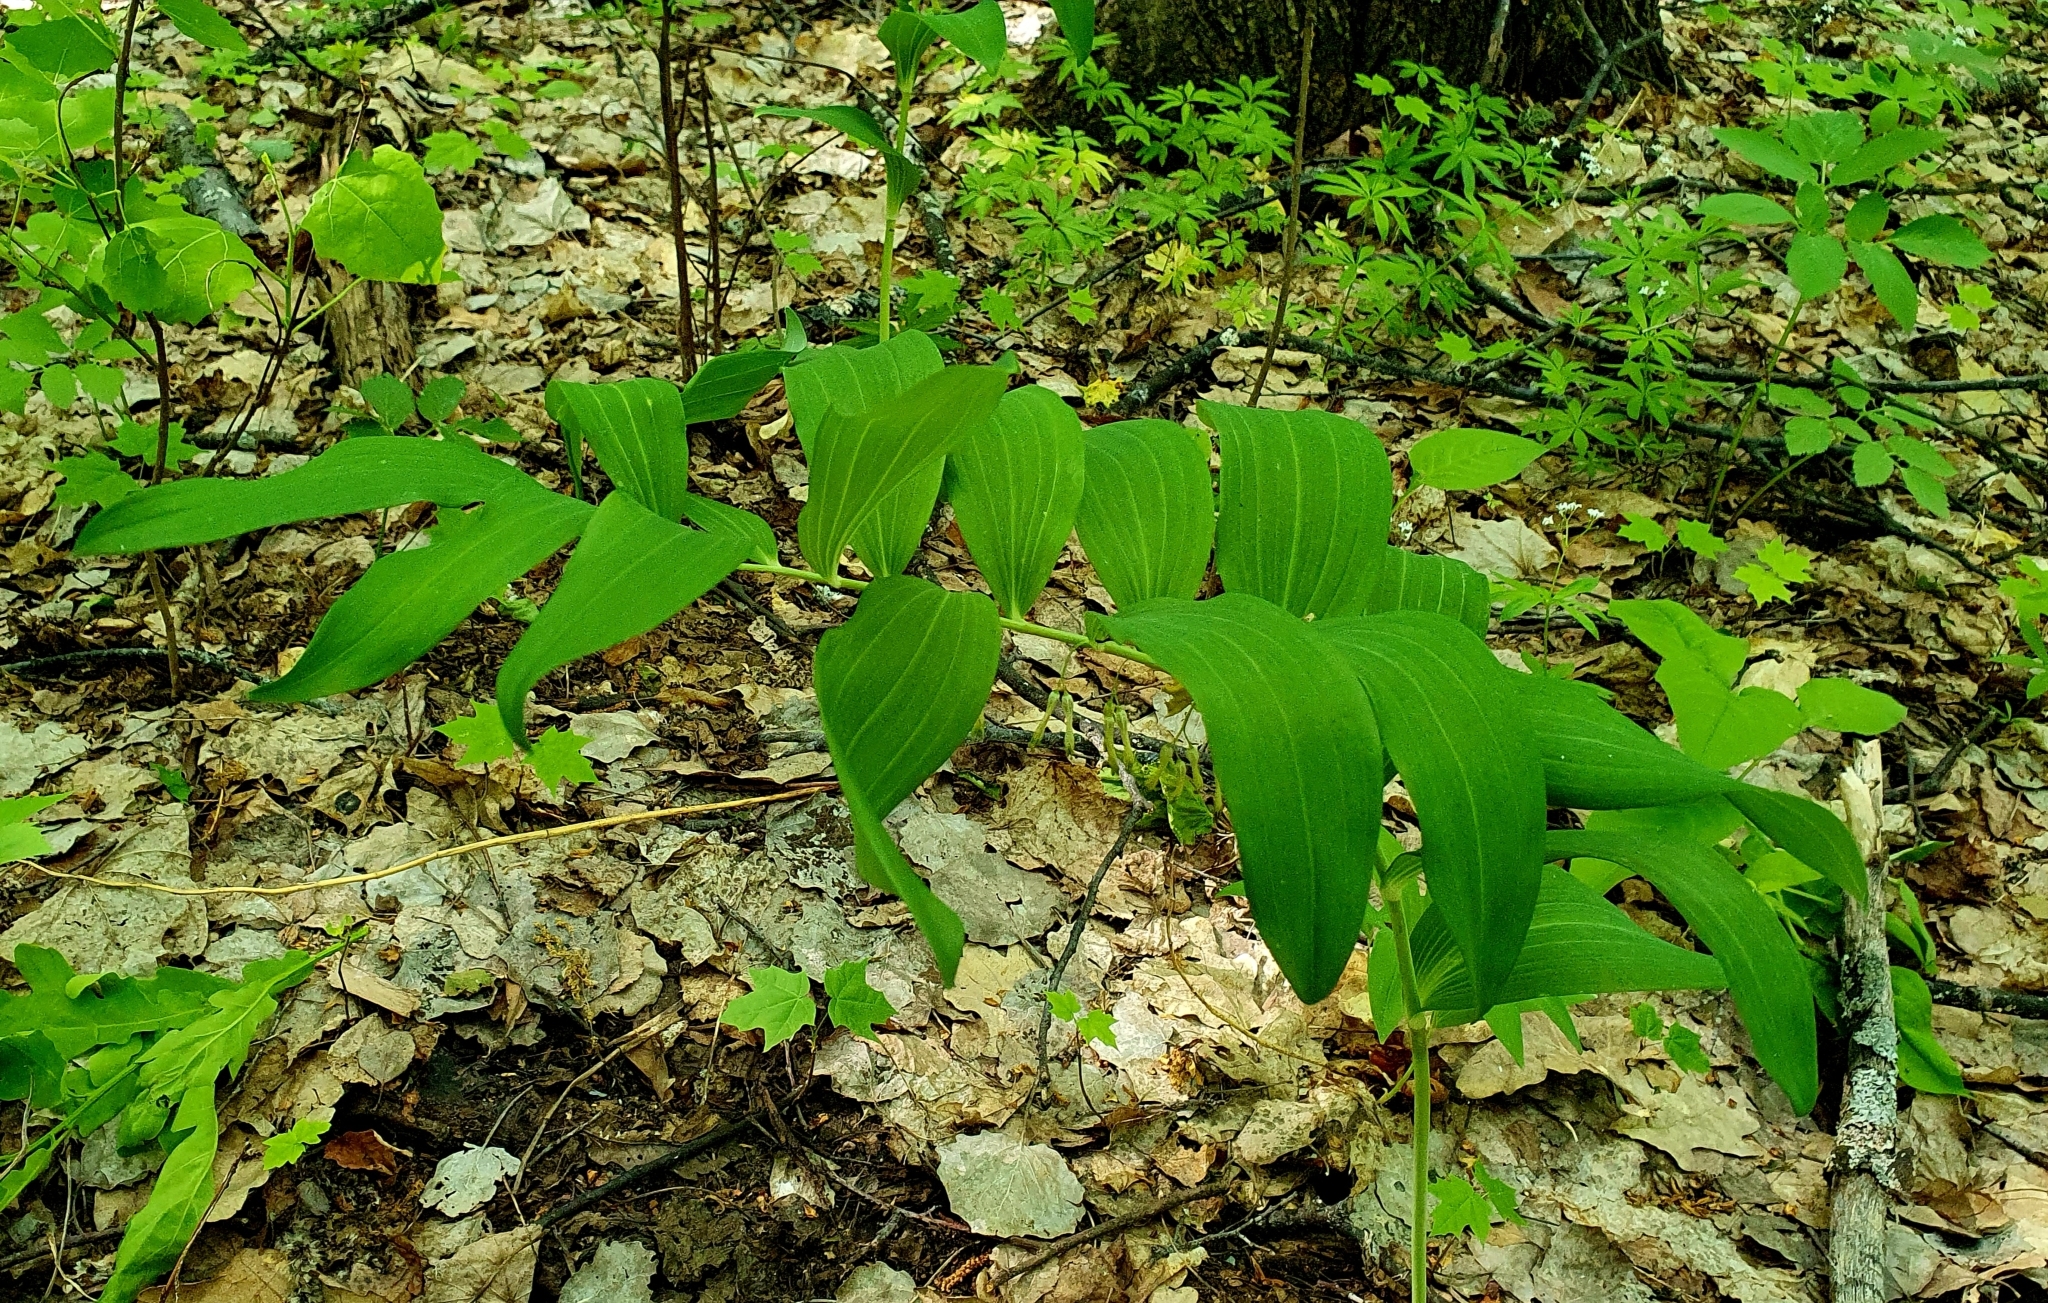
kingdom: Plantae
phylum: Tracheophyta
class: Liliopsida
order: Asparagales
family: Asparagaceae
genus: Polygonatum
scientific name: Polygonatum multiflorum
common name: Solomon's-seal
